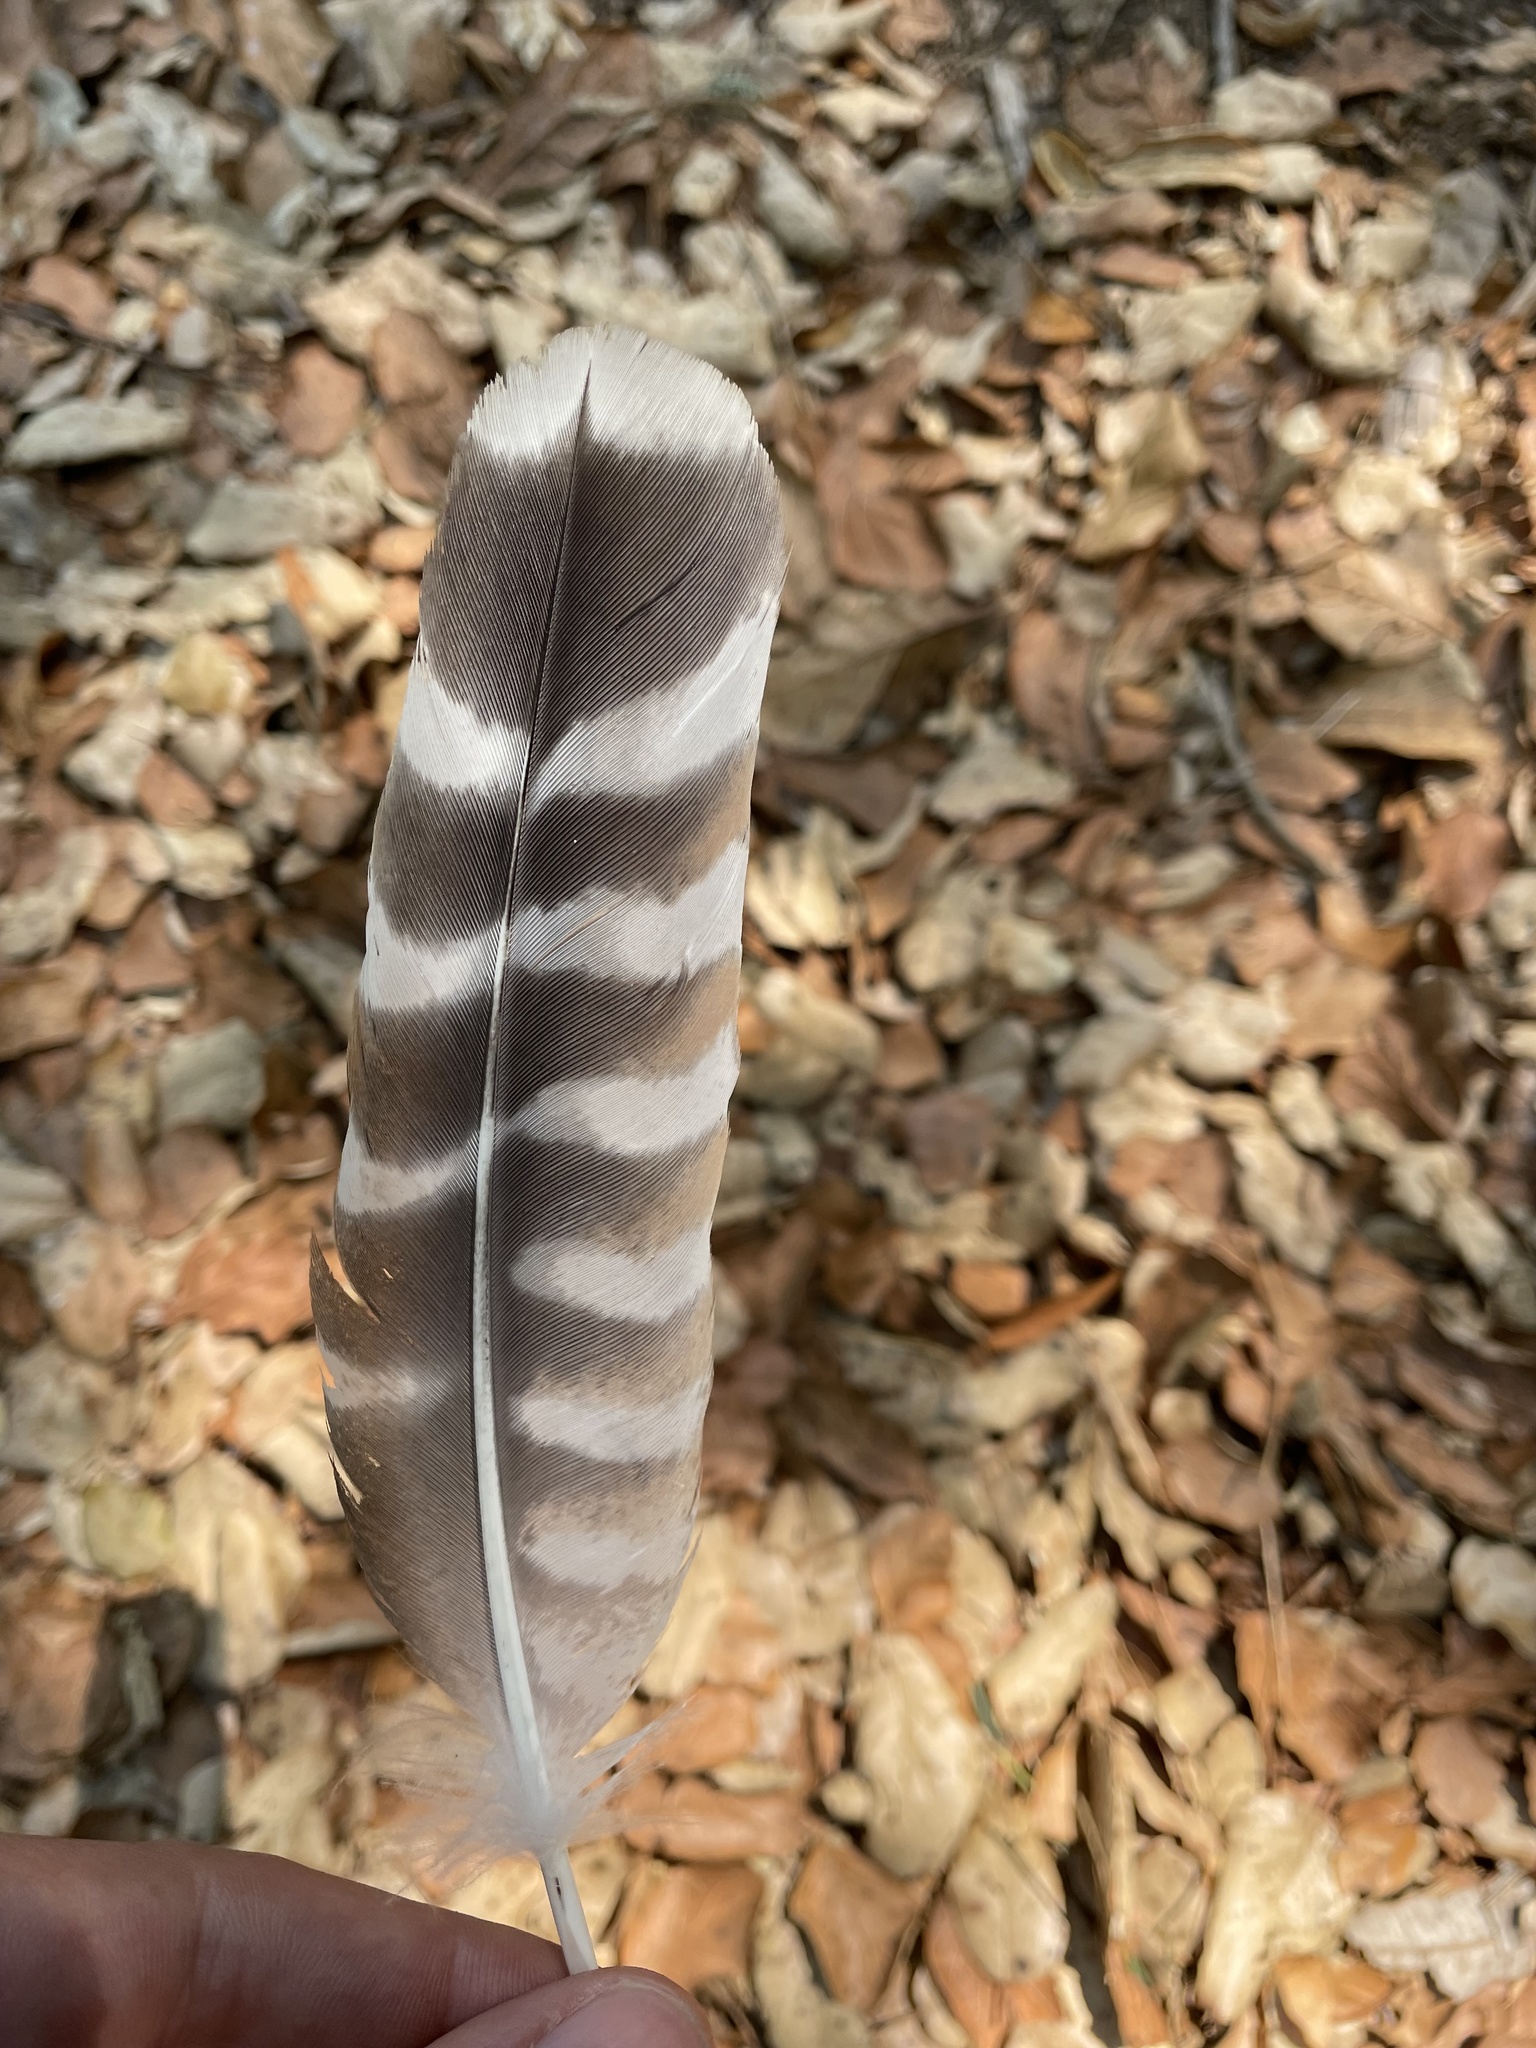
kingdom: Animalia
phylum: Chordata
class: Aves
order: Accipitriformes
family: Accipitridae
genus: Buteo
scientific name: Buteo lineatus
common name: Red-shouldered hawk
